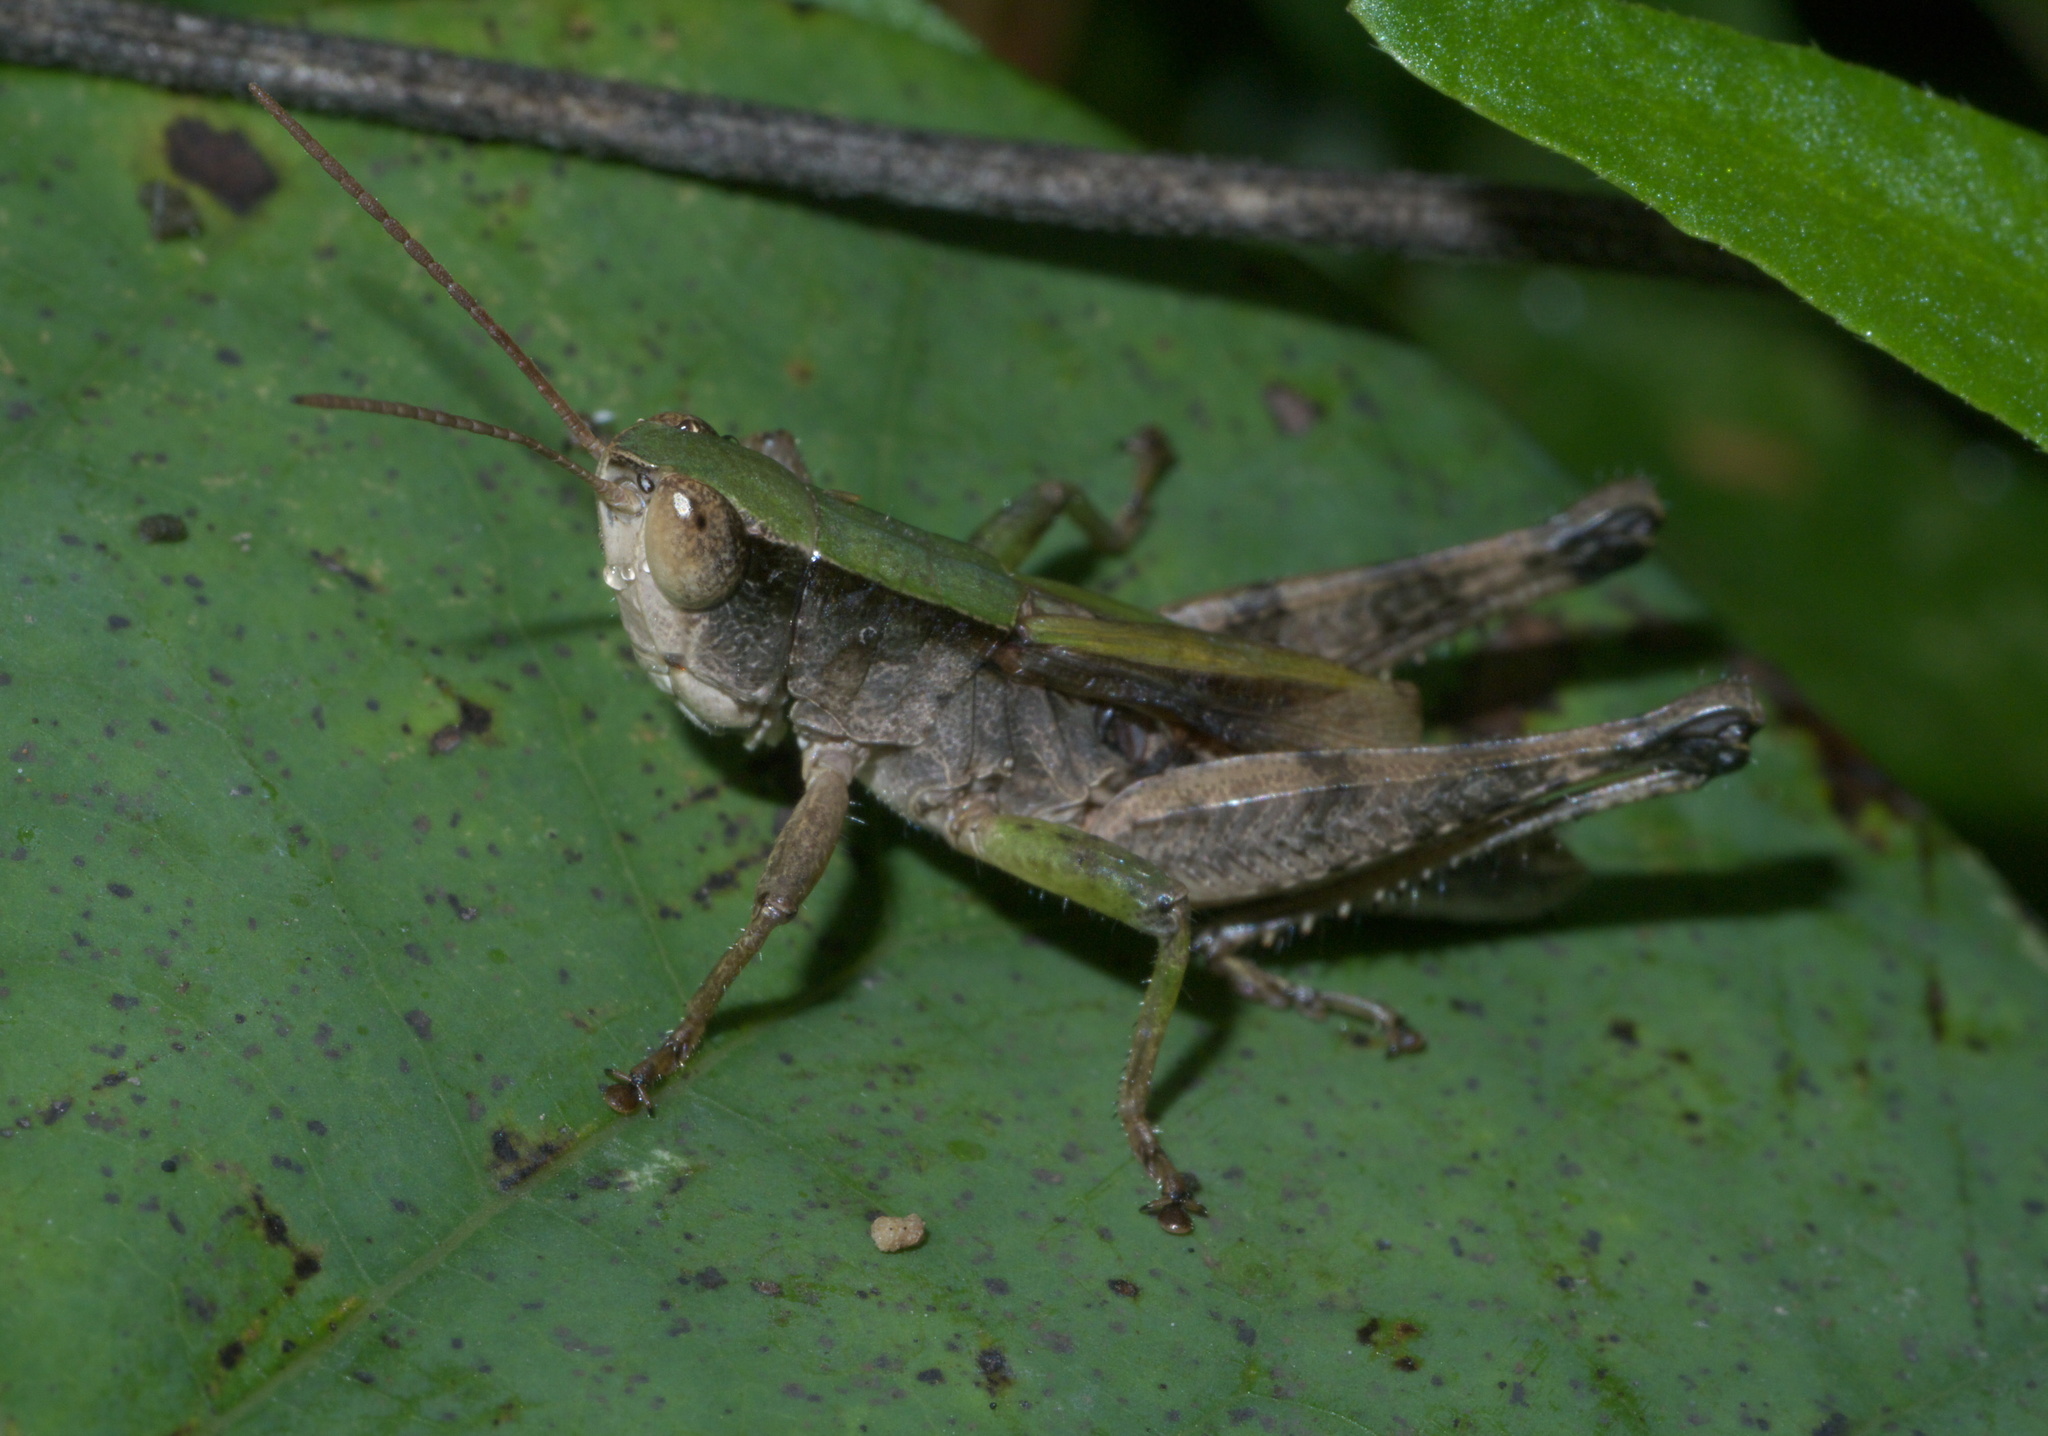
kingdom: Animalia
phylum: Arthropoda
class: Insecta
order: Orthoptera
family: Acrididae
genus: Dichromorpha
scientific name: Dichromorpha viridis
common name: Short-winged green grasshopper
